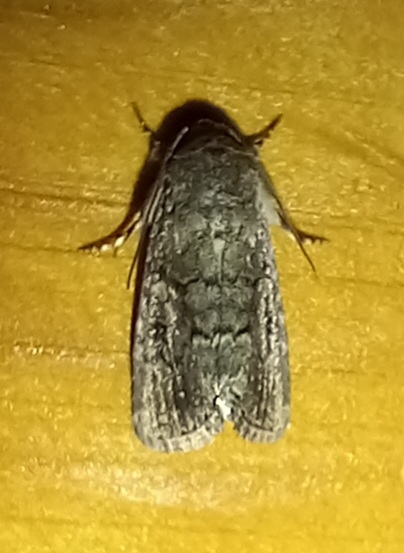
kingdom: Animalia
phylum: Arthropoda
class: Insecta
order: Lepidoptera
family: Noctuidae
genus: Spodoptera
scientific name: Spodoptera cilium
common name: Dark mottled willow
